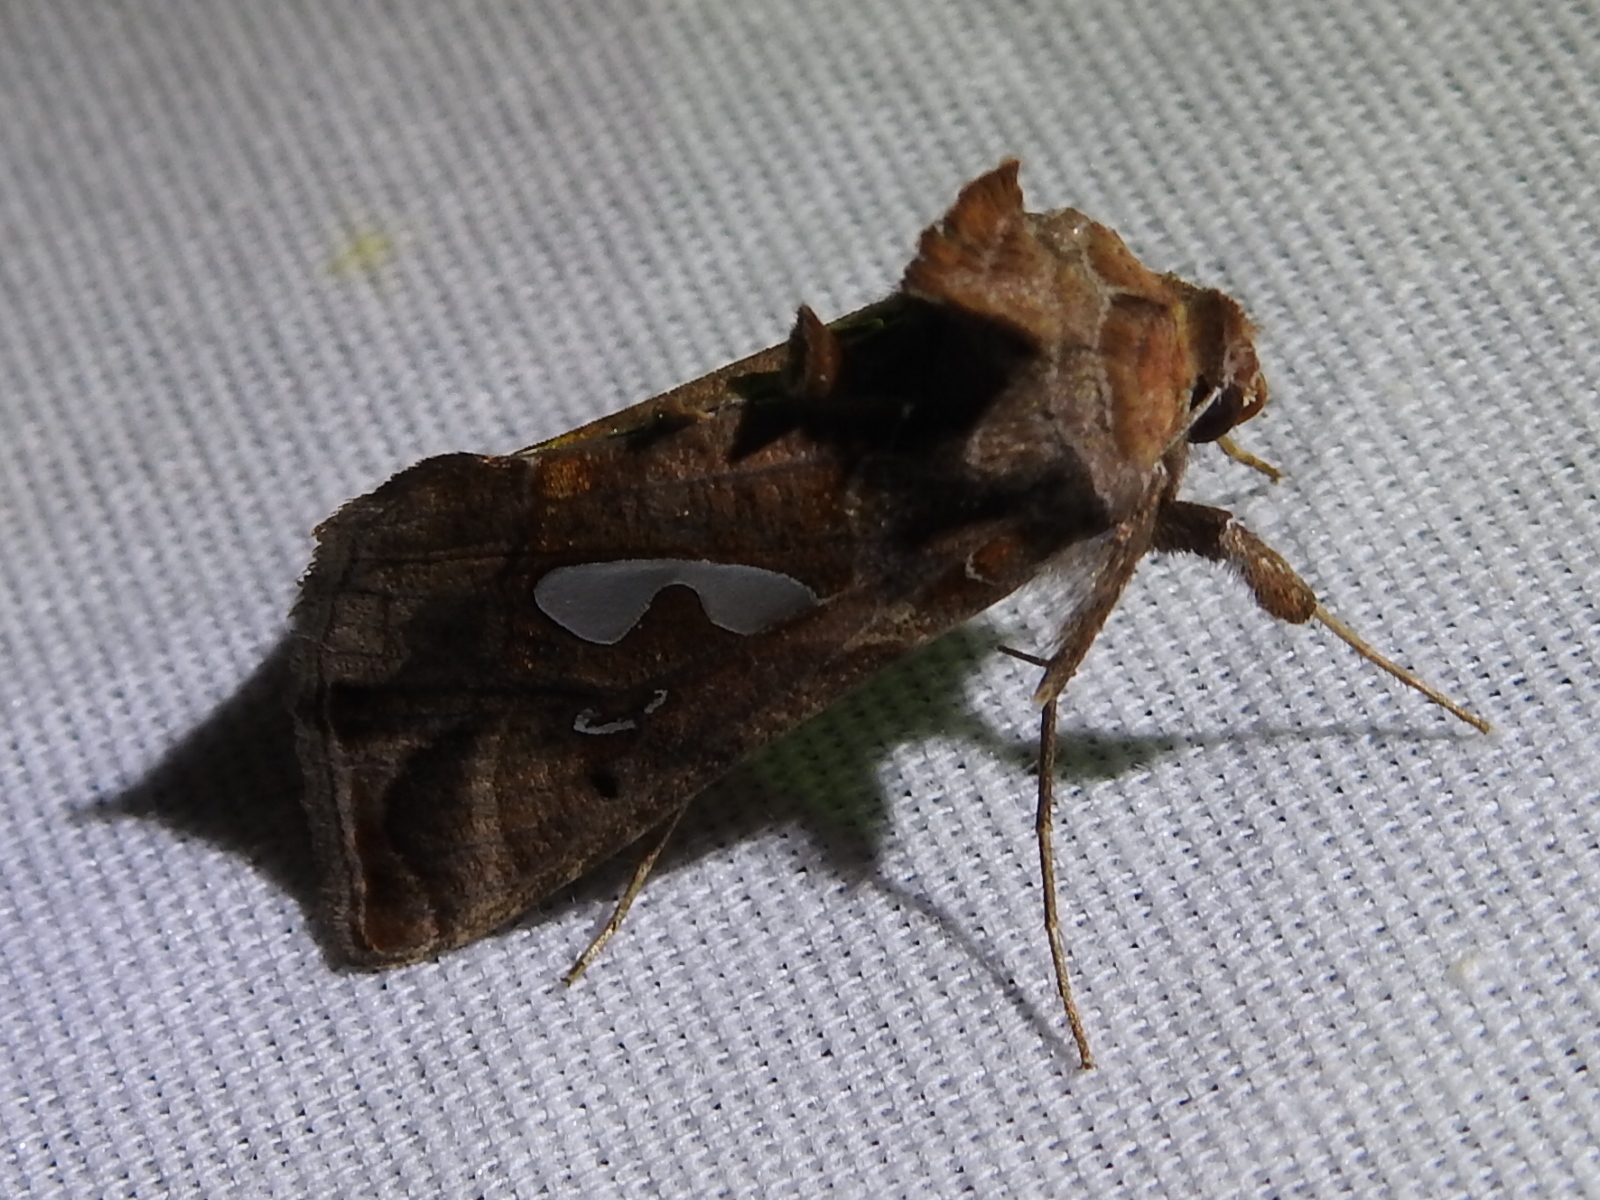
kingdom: Animalia
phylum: Arthropoda
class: Insecta
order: Lepidoptera
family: Noctuidae
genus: Megalographa
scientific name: Megalographa biloba
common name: Cutworm
